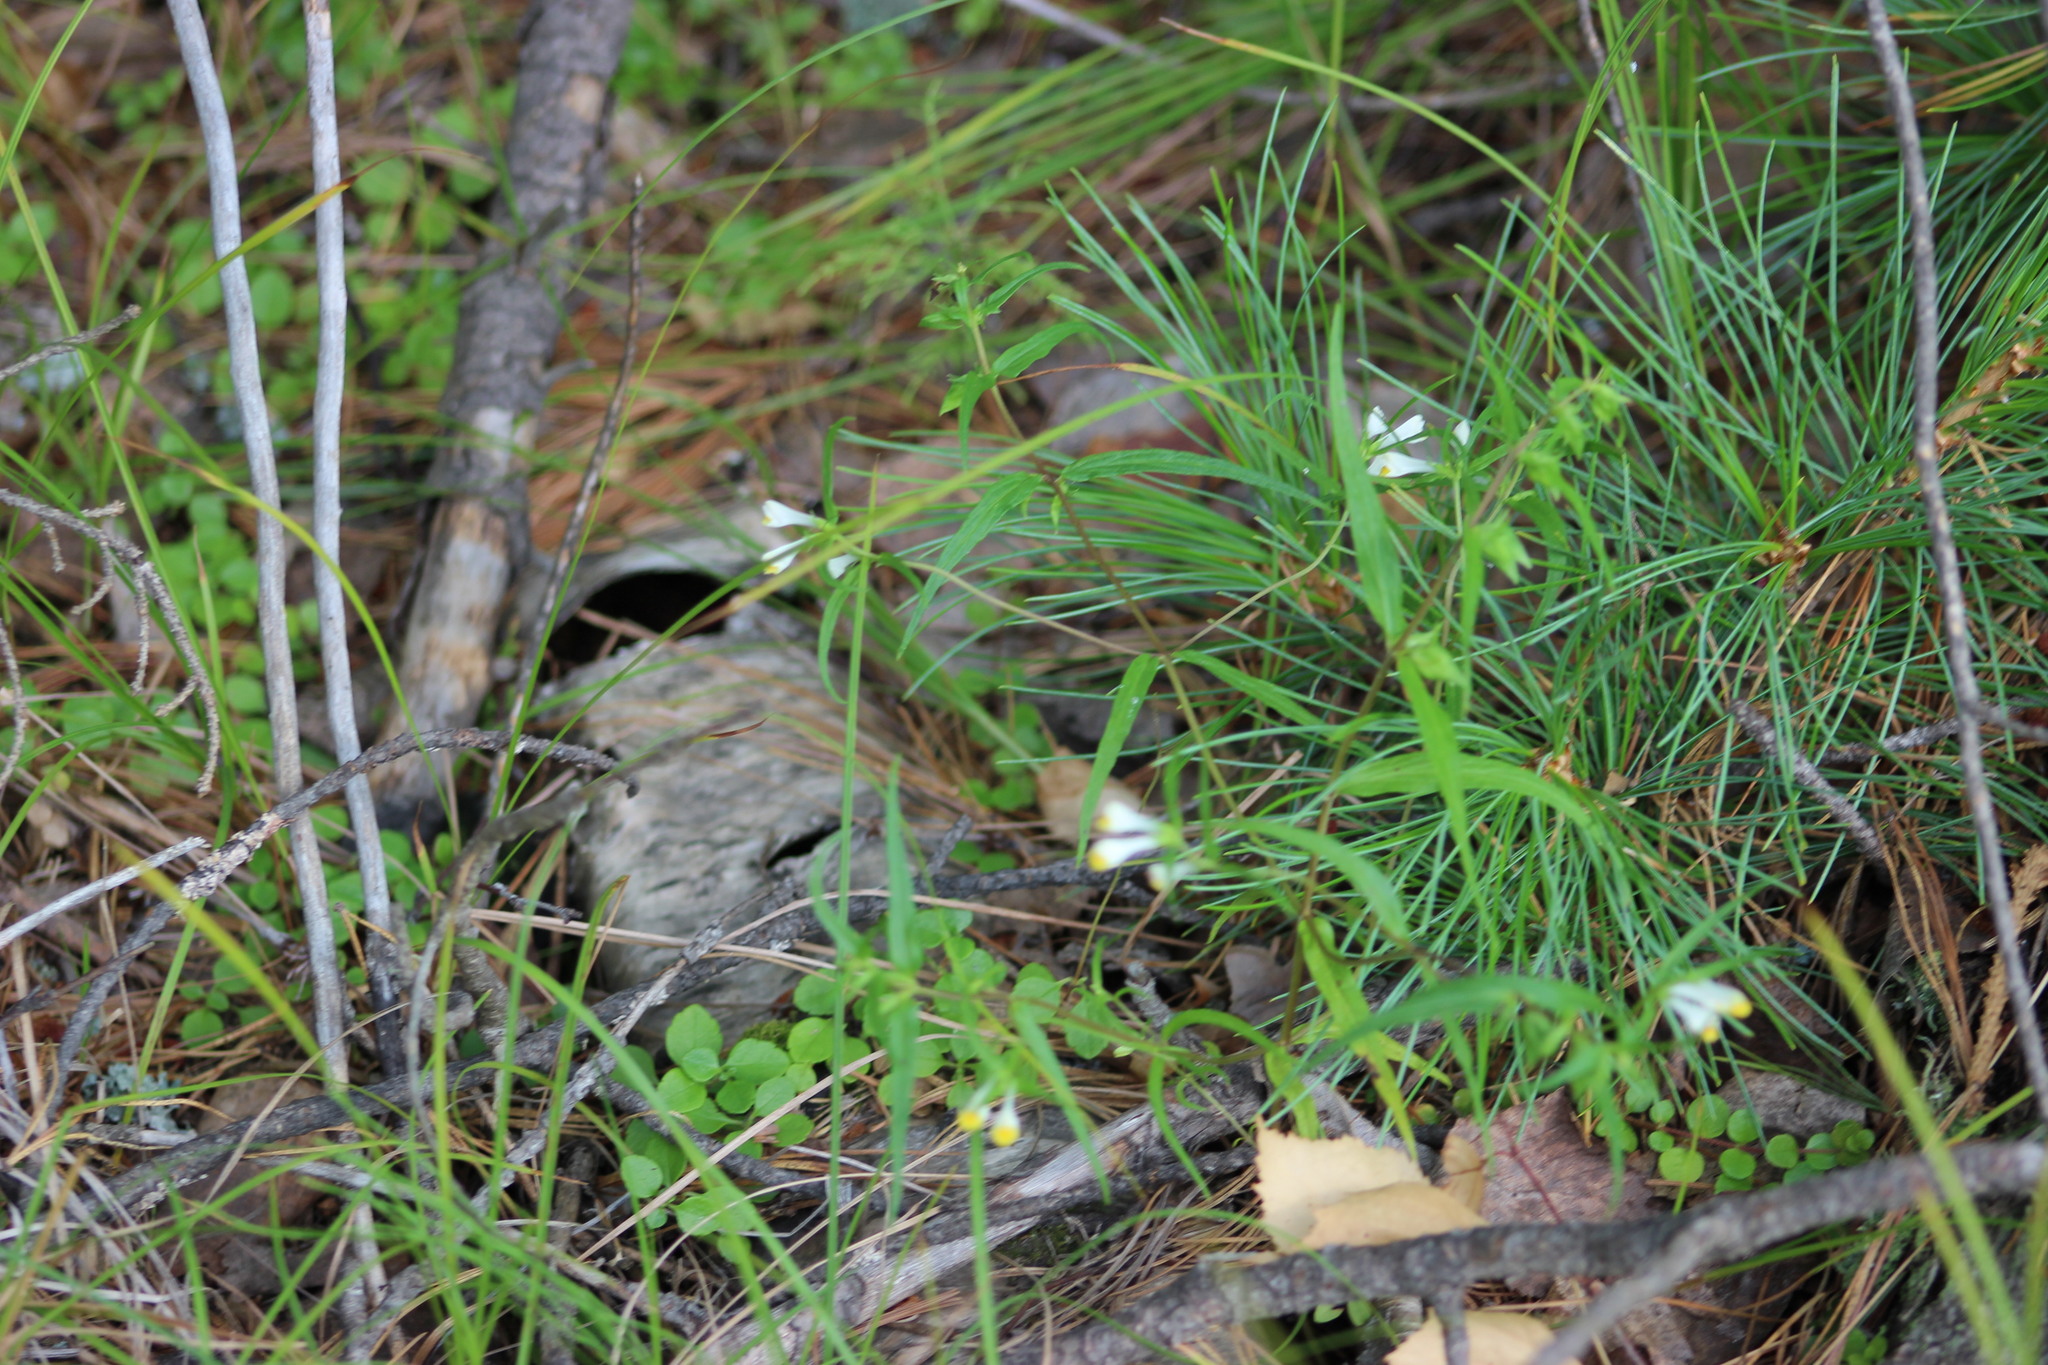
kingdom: Plantae
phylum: Tracheophyta
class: Magnoliopsida
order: Lamiales
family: Orobanchaceae
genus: Melampyrum
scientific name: Melampyrum pratense
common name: Common cow-wheat
